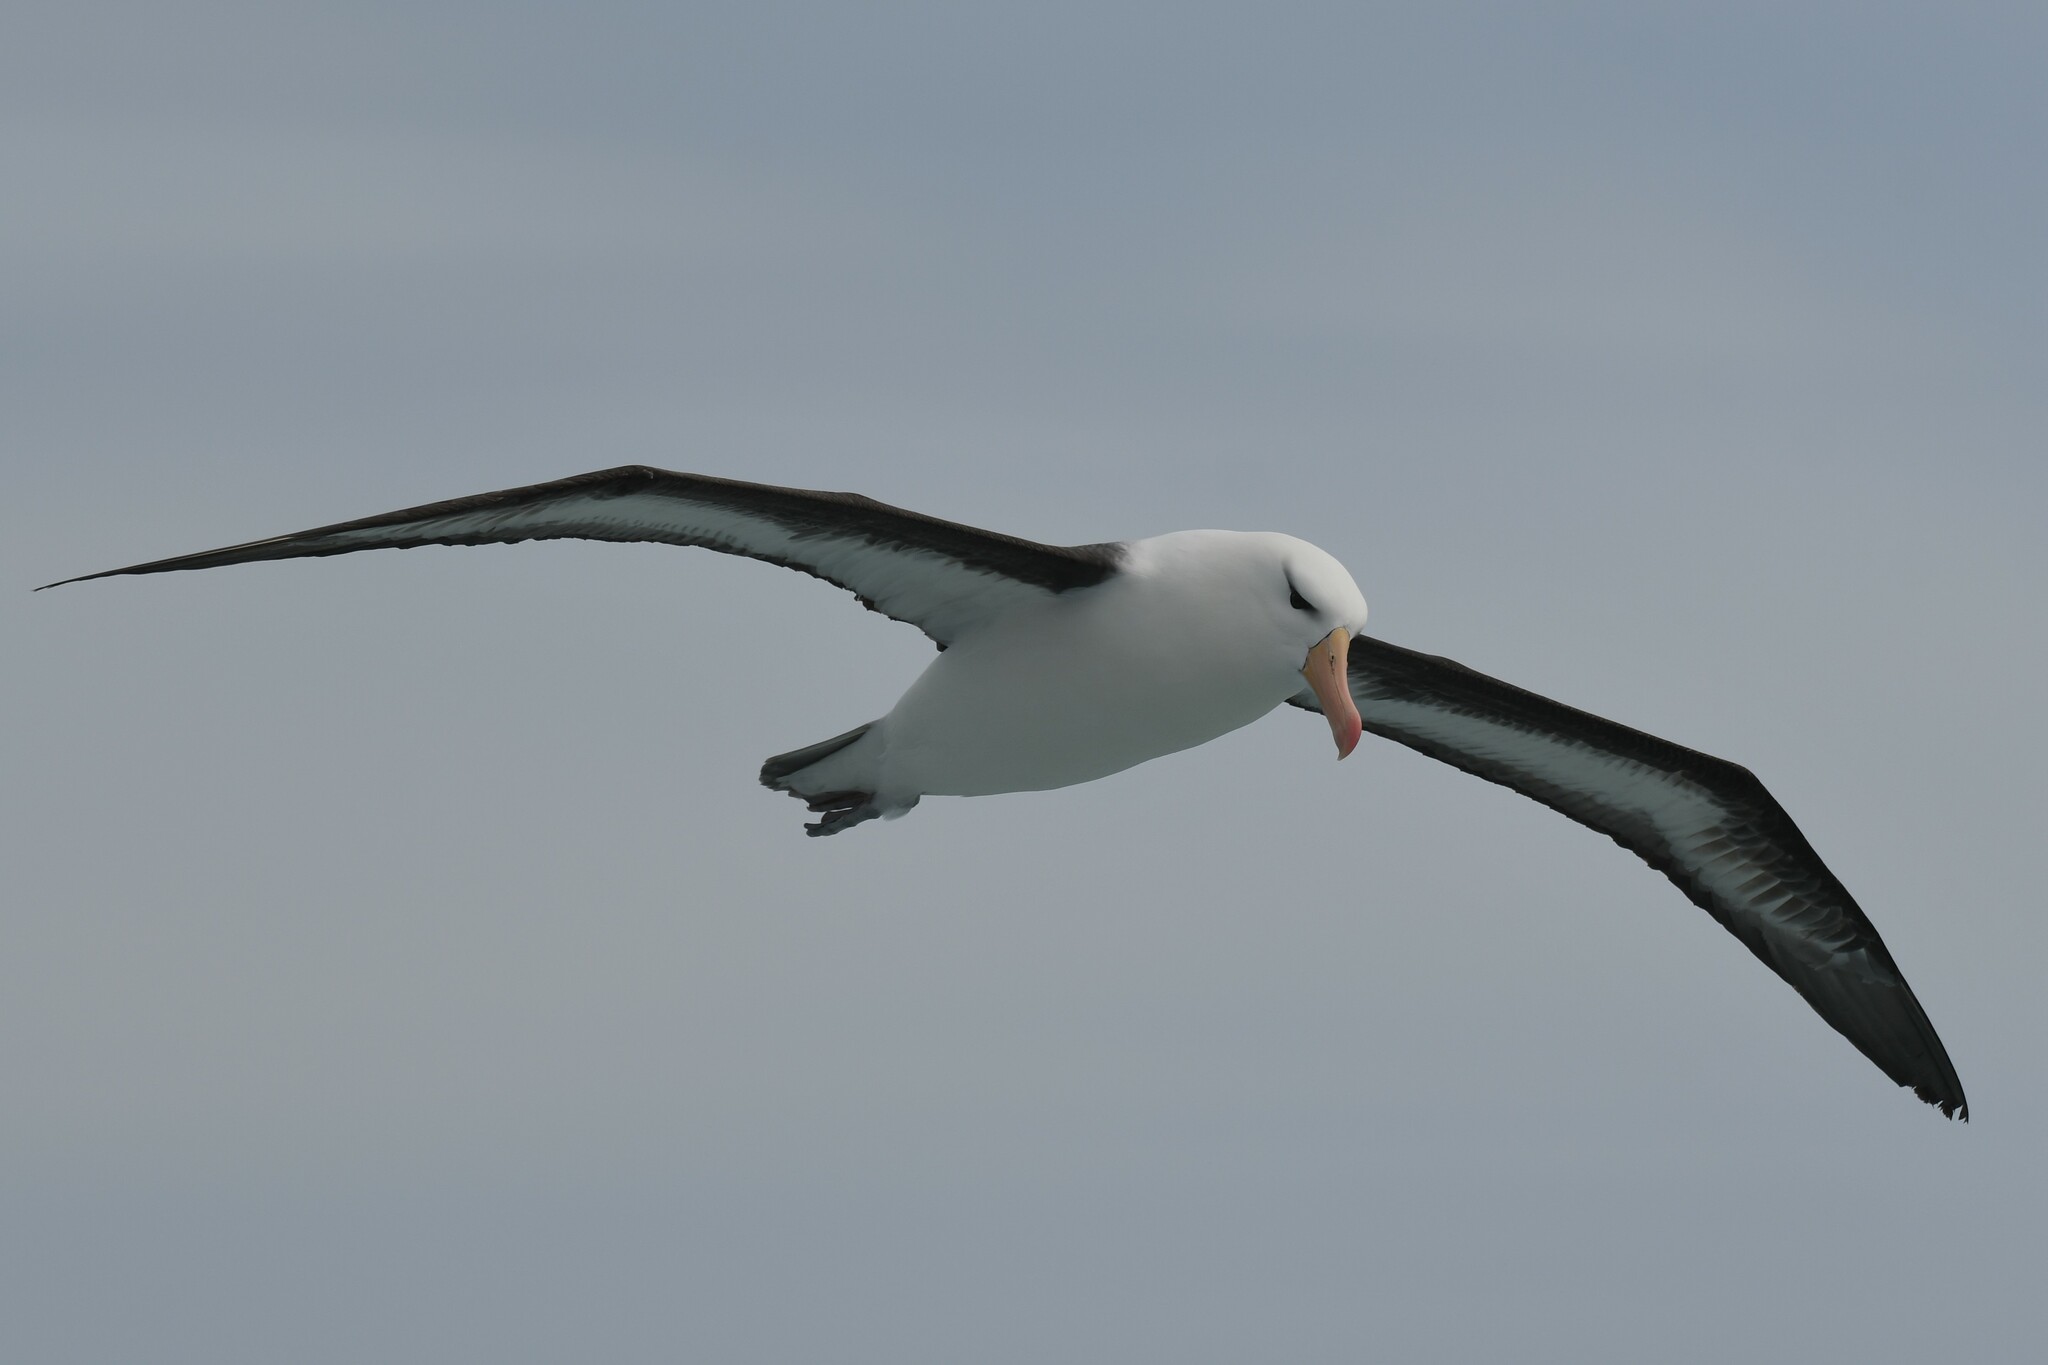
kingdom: Animalia
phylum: Chordata
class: Aves
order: Procellariiformes
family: Diomedeidae
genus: Thalassarche
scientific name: Thalassarche melanophris
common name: Black-browed albatross
